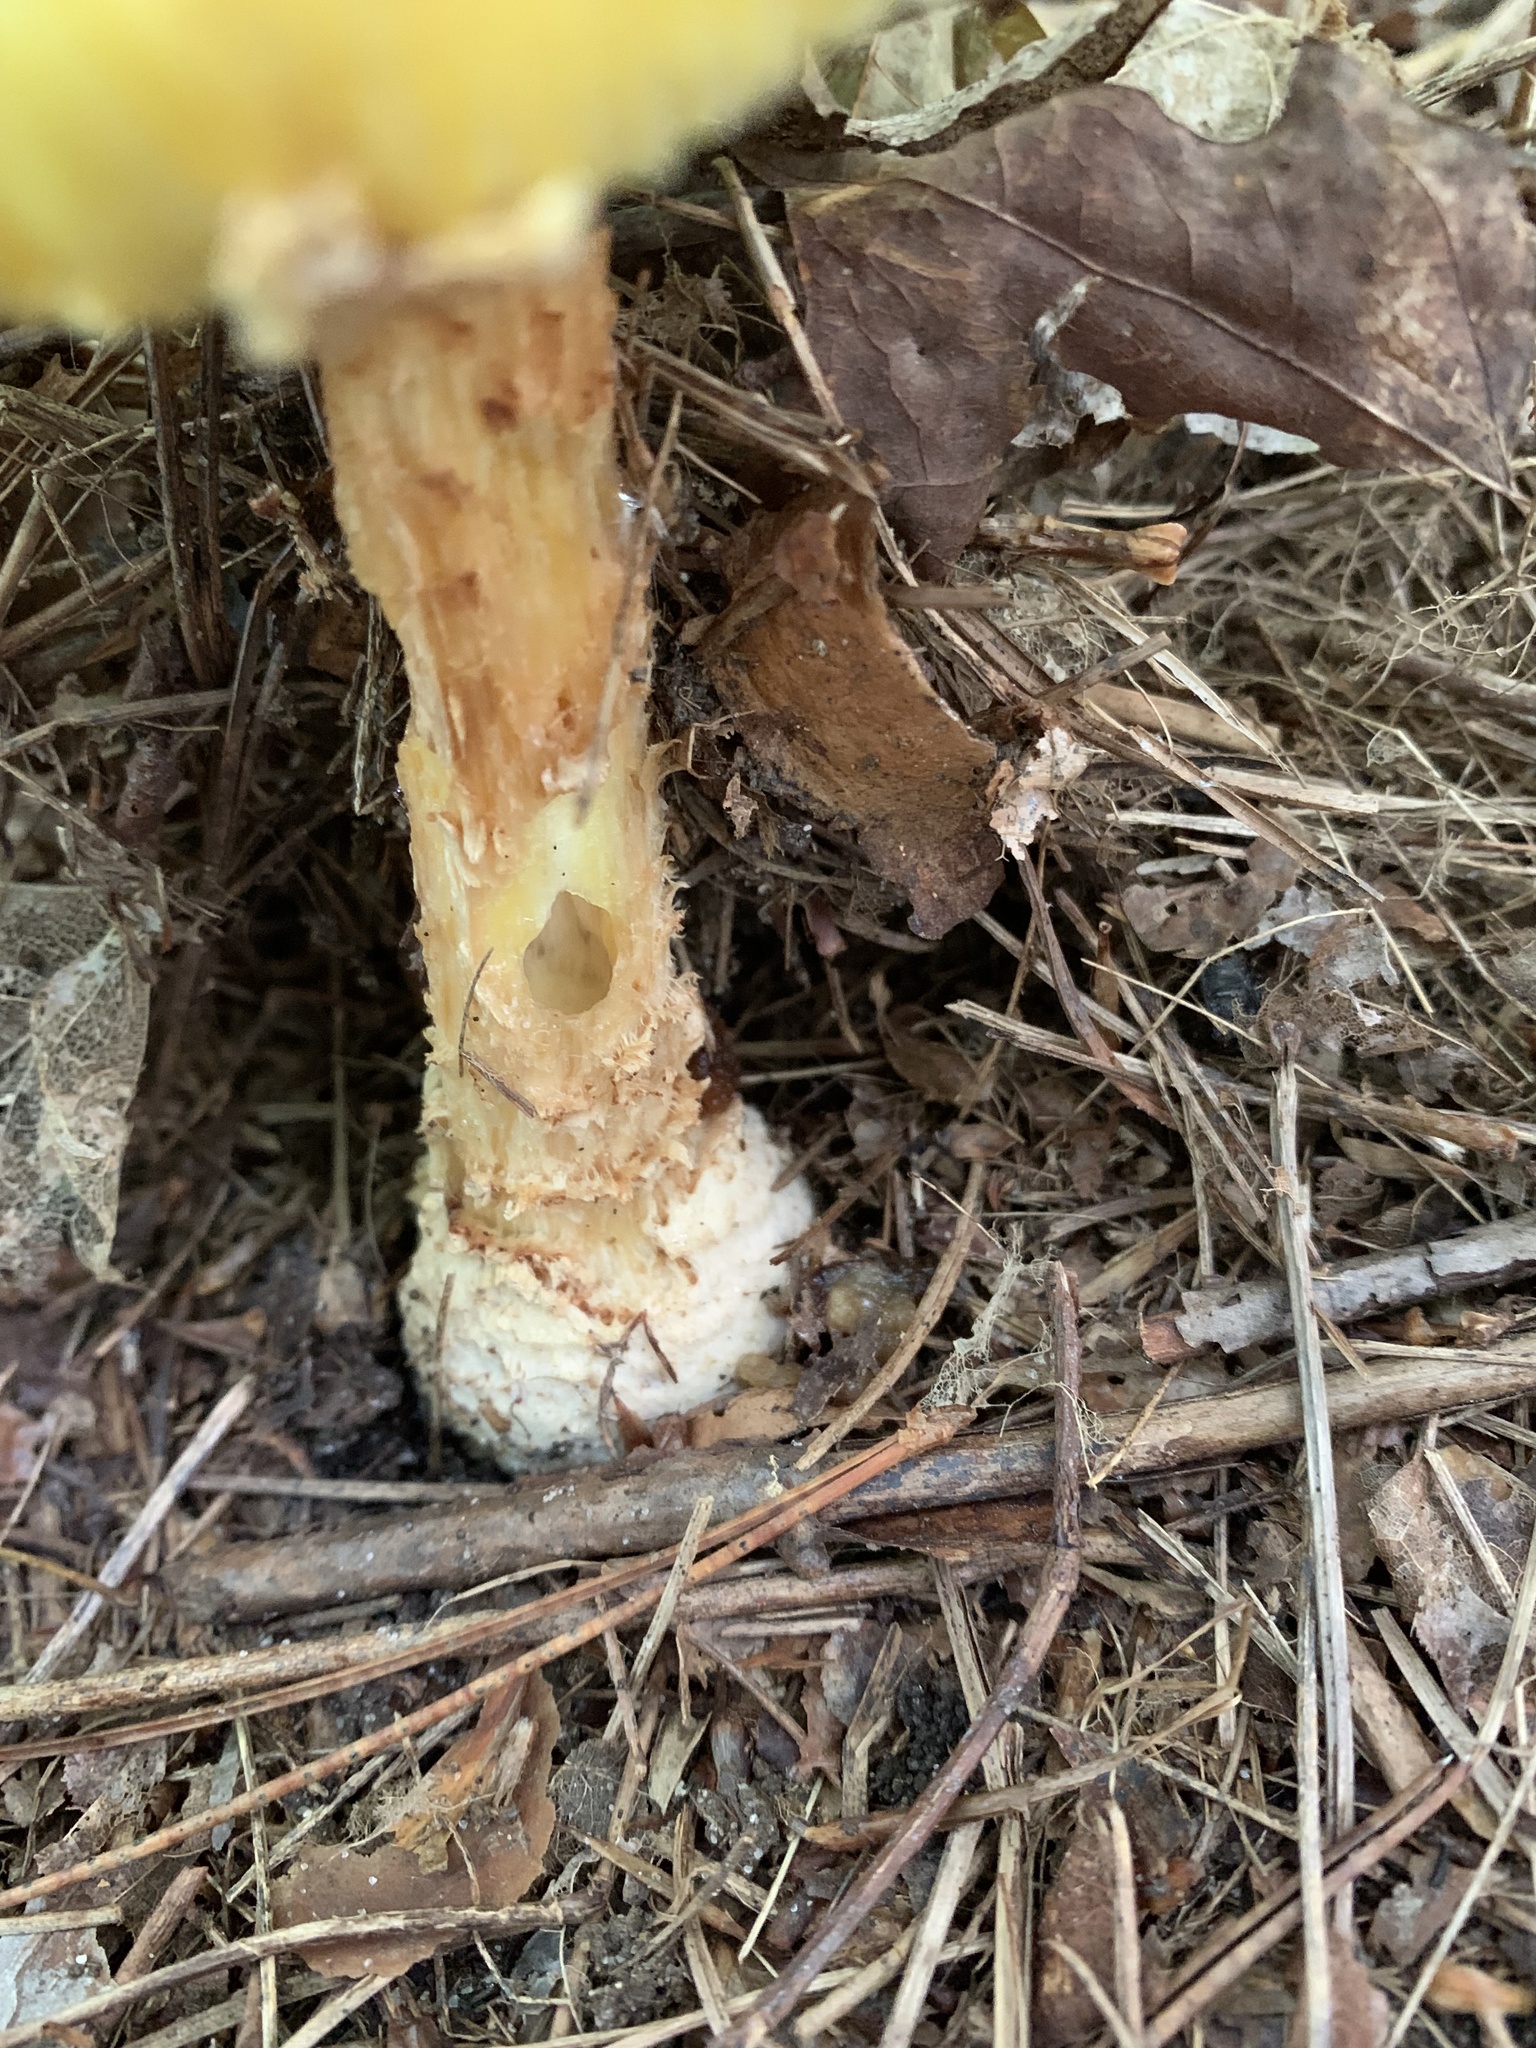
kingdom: Fungi
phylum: Basidiomycota
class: Agaricomycetes
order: Agaricales
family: Amanitaceae
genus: Amanita
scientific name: Amanita muscaria
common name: Fly agaric
